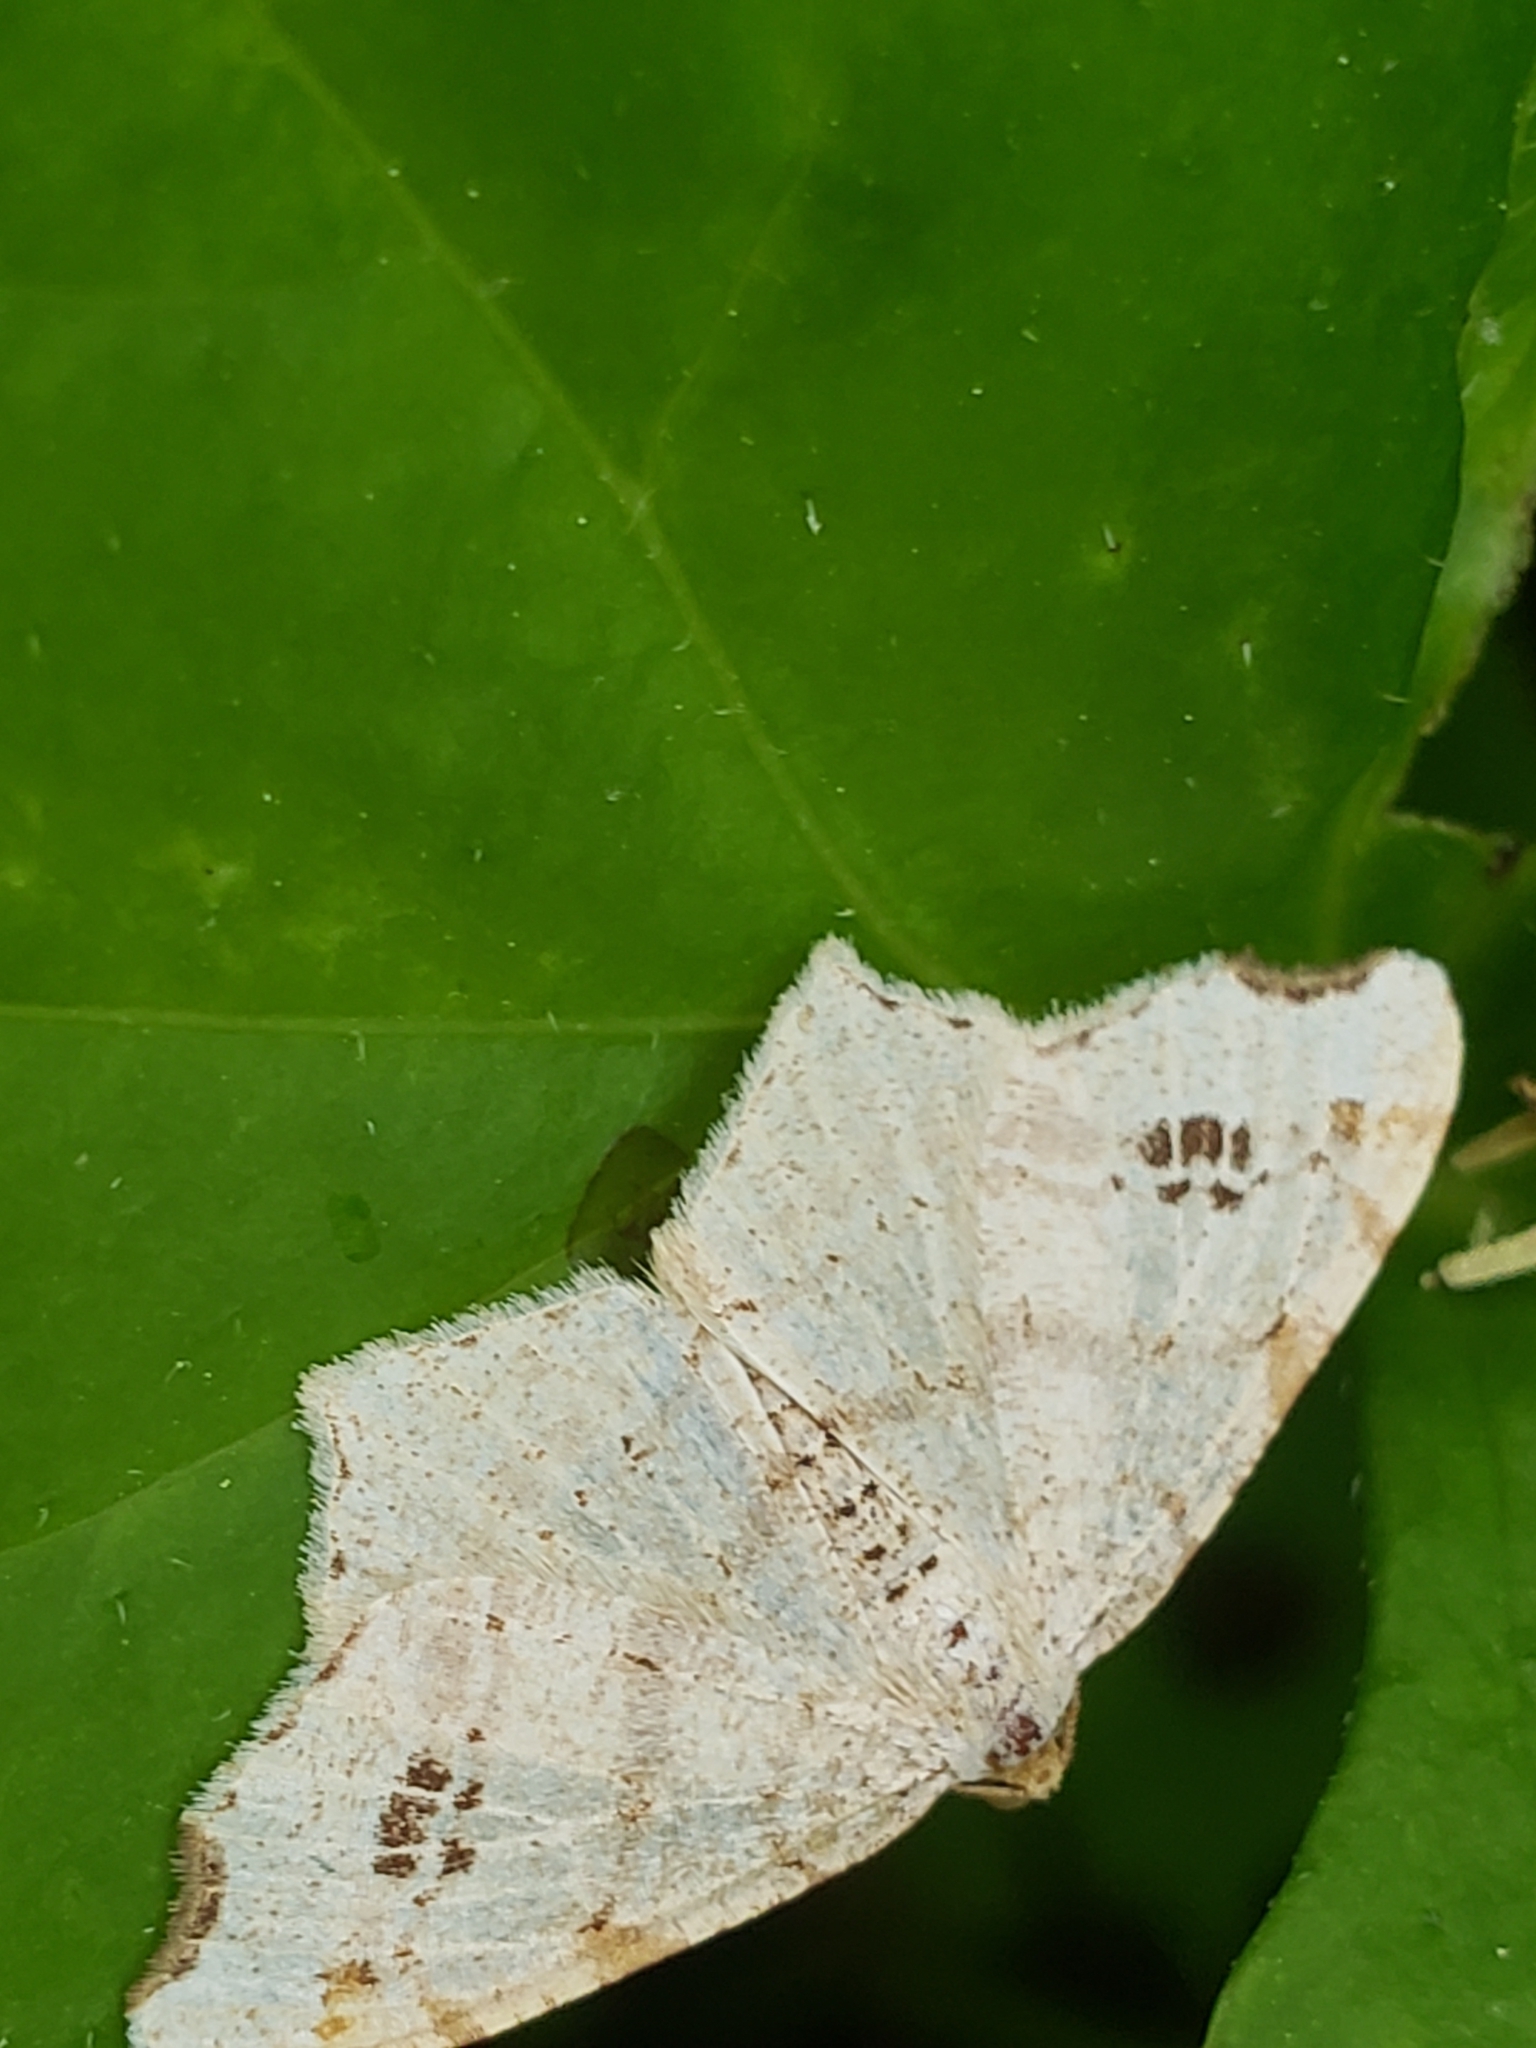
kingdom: Animalia
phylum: Arthropoda
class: Insecta
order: Lepidoptera
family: Geometridae
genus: Macaria
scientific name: Macaria aemulataria
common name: Common angle
